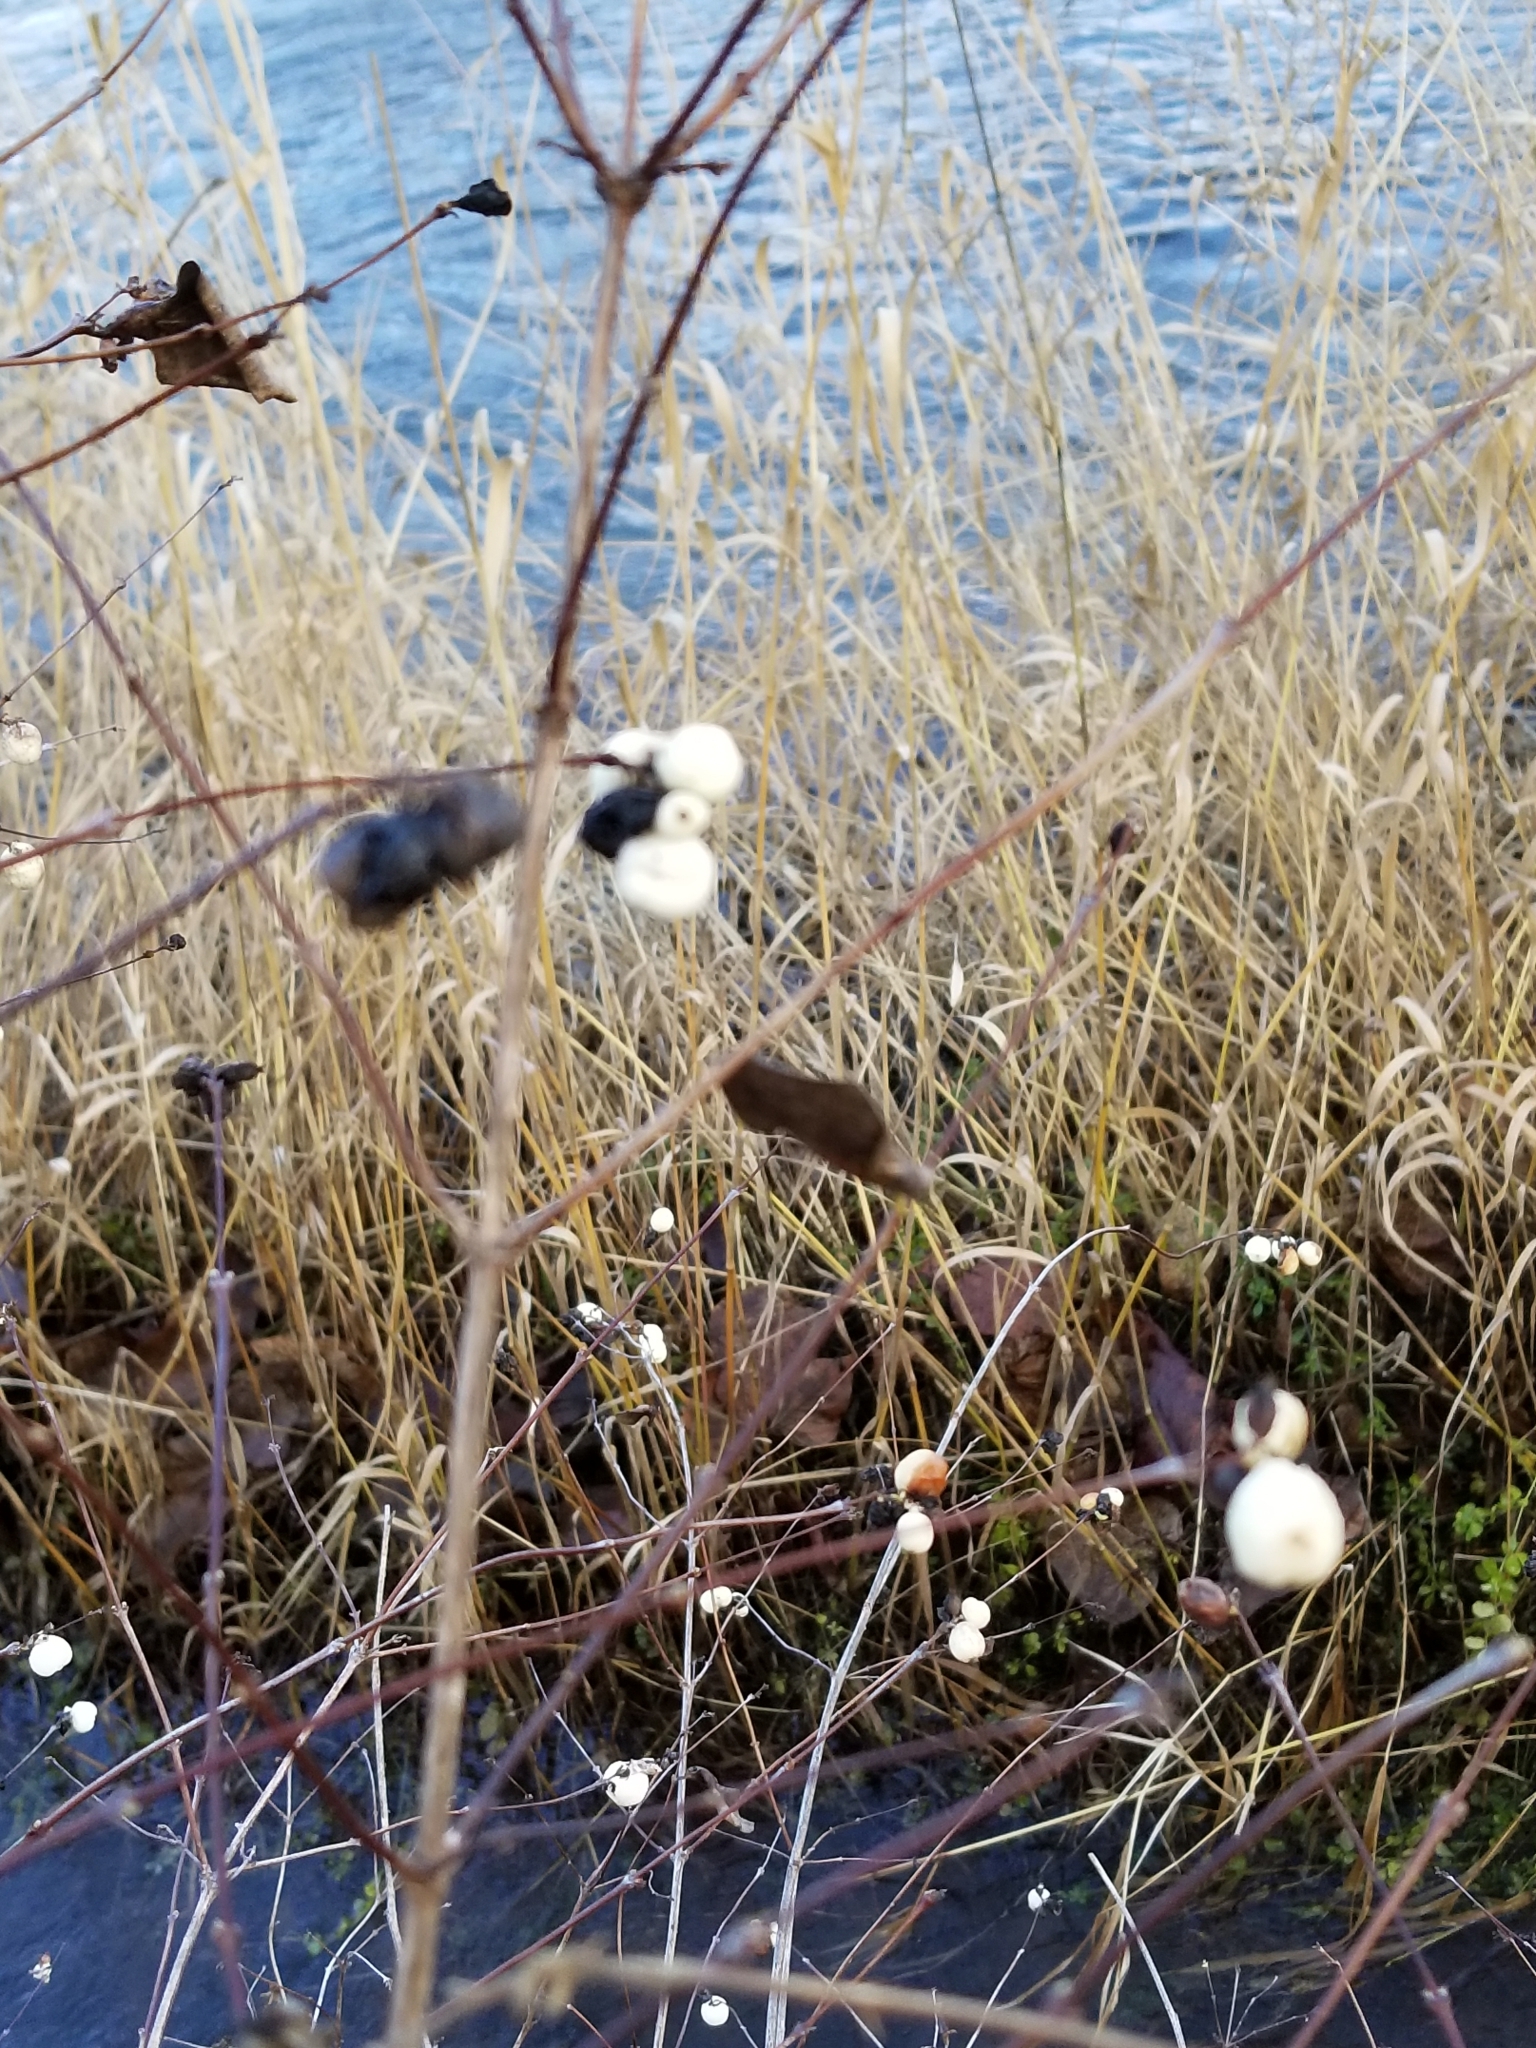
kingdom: Plantae
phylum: Tracheophyta
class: Magnoliopsida
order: Dipsacales
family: Caprifoliaceae
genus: Symphoricarpos
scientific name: Symphoricarpos albus
